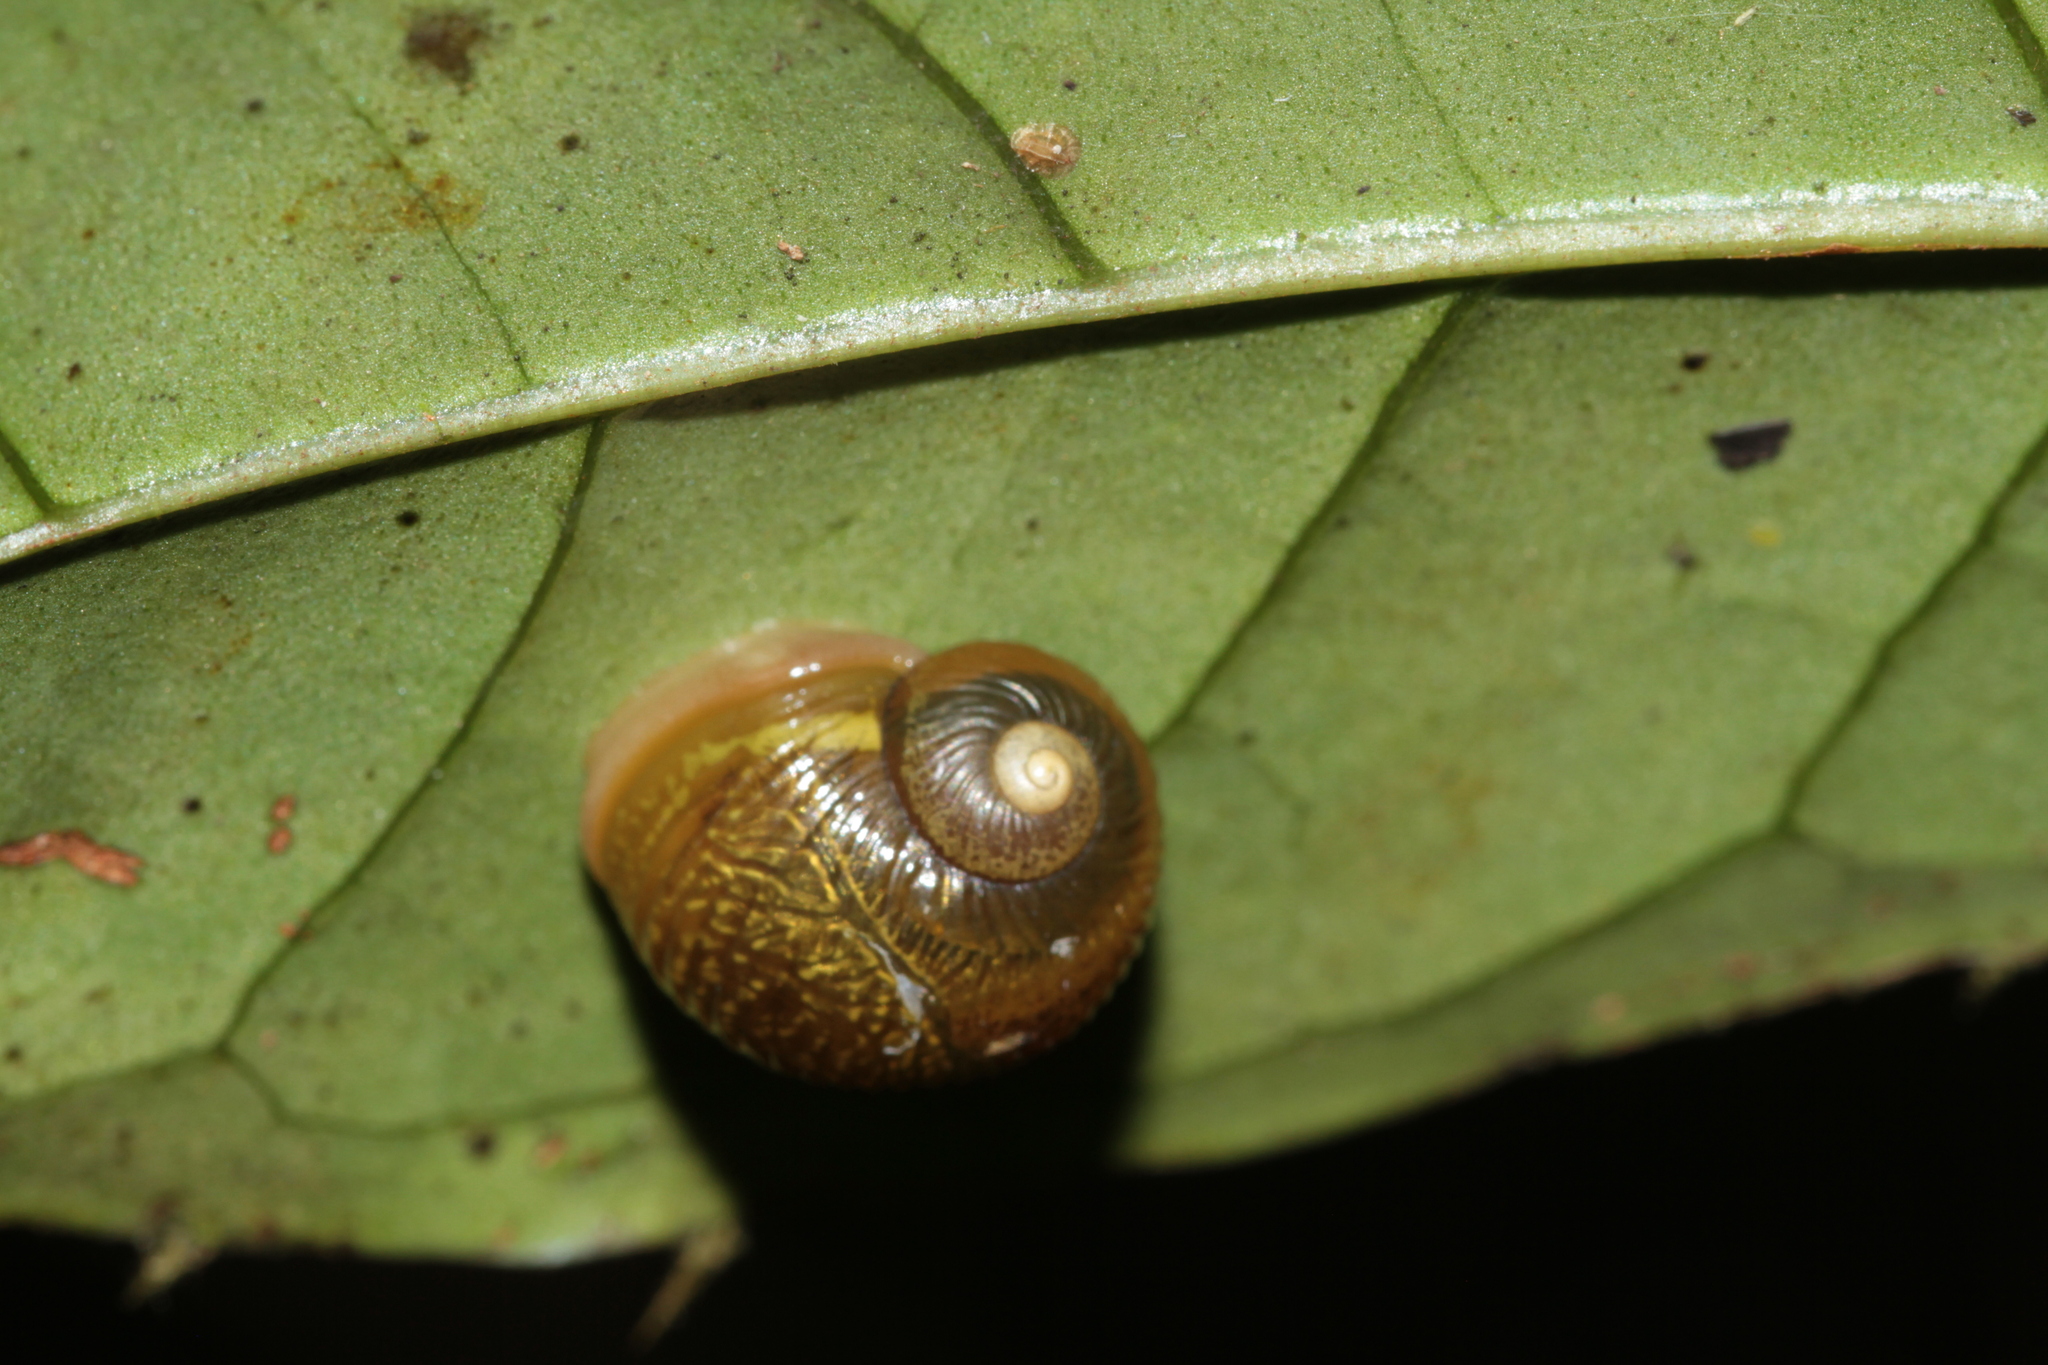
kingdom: Animalia
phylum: Mollusca
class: Gastropoda
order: Stylommatophora
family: Simpulopsidae
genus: Simpulopsis
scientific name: Simpulopsis corrugata
